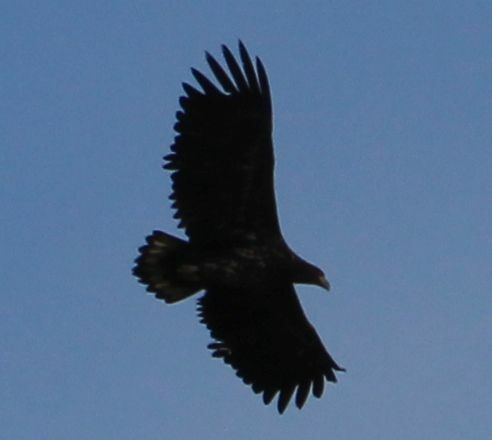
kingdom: Animalia
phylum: Chordata
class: Aves
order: Accipitriformes
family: Accipitridae
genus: Haliaeetus
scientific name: Haliaeetus albicilla
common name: White-tailed eagle
